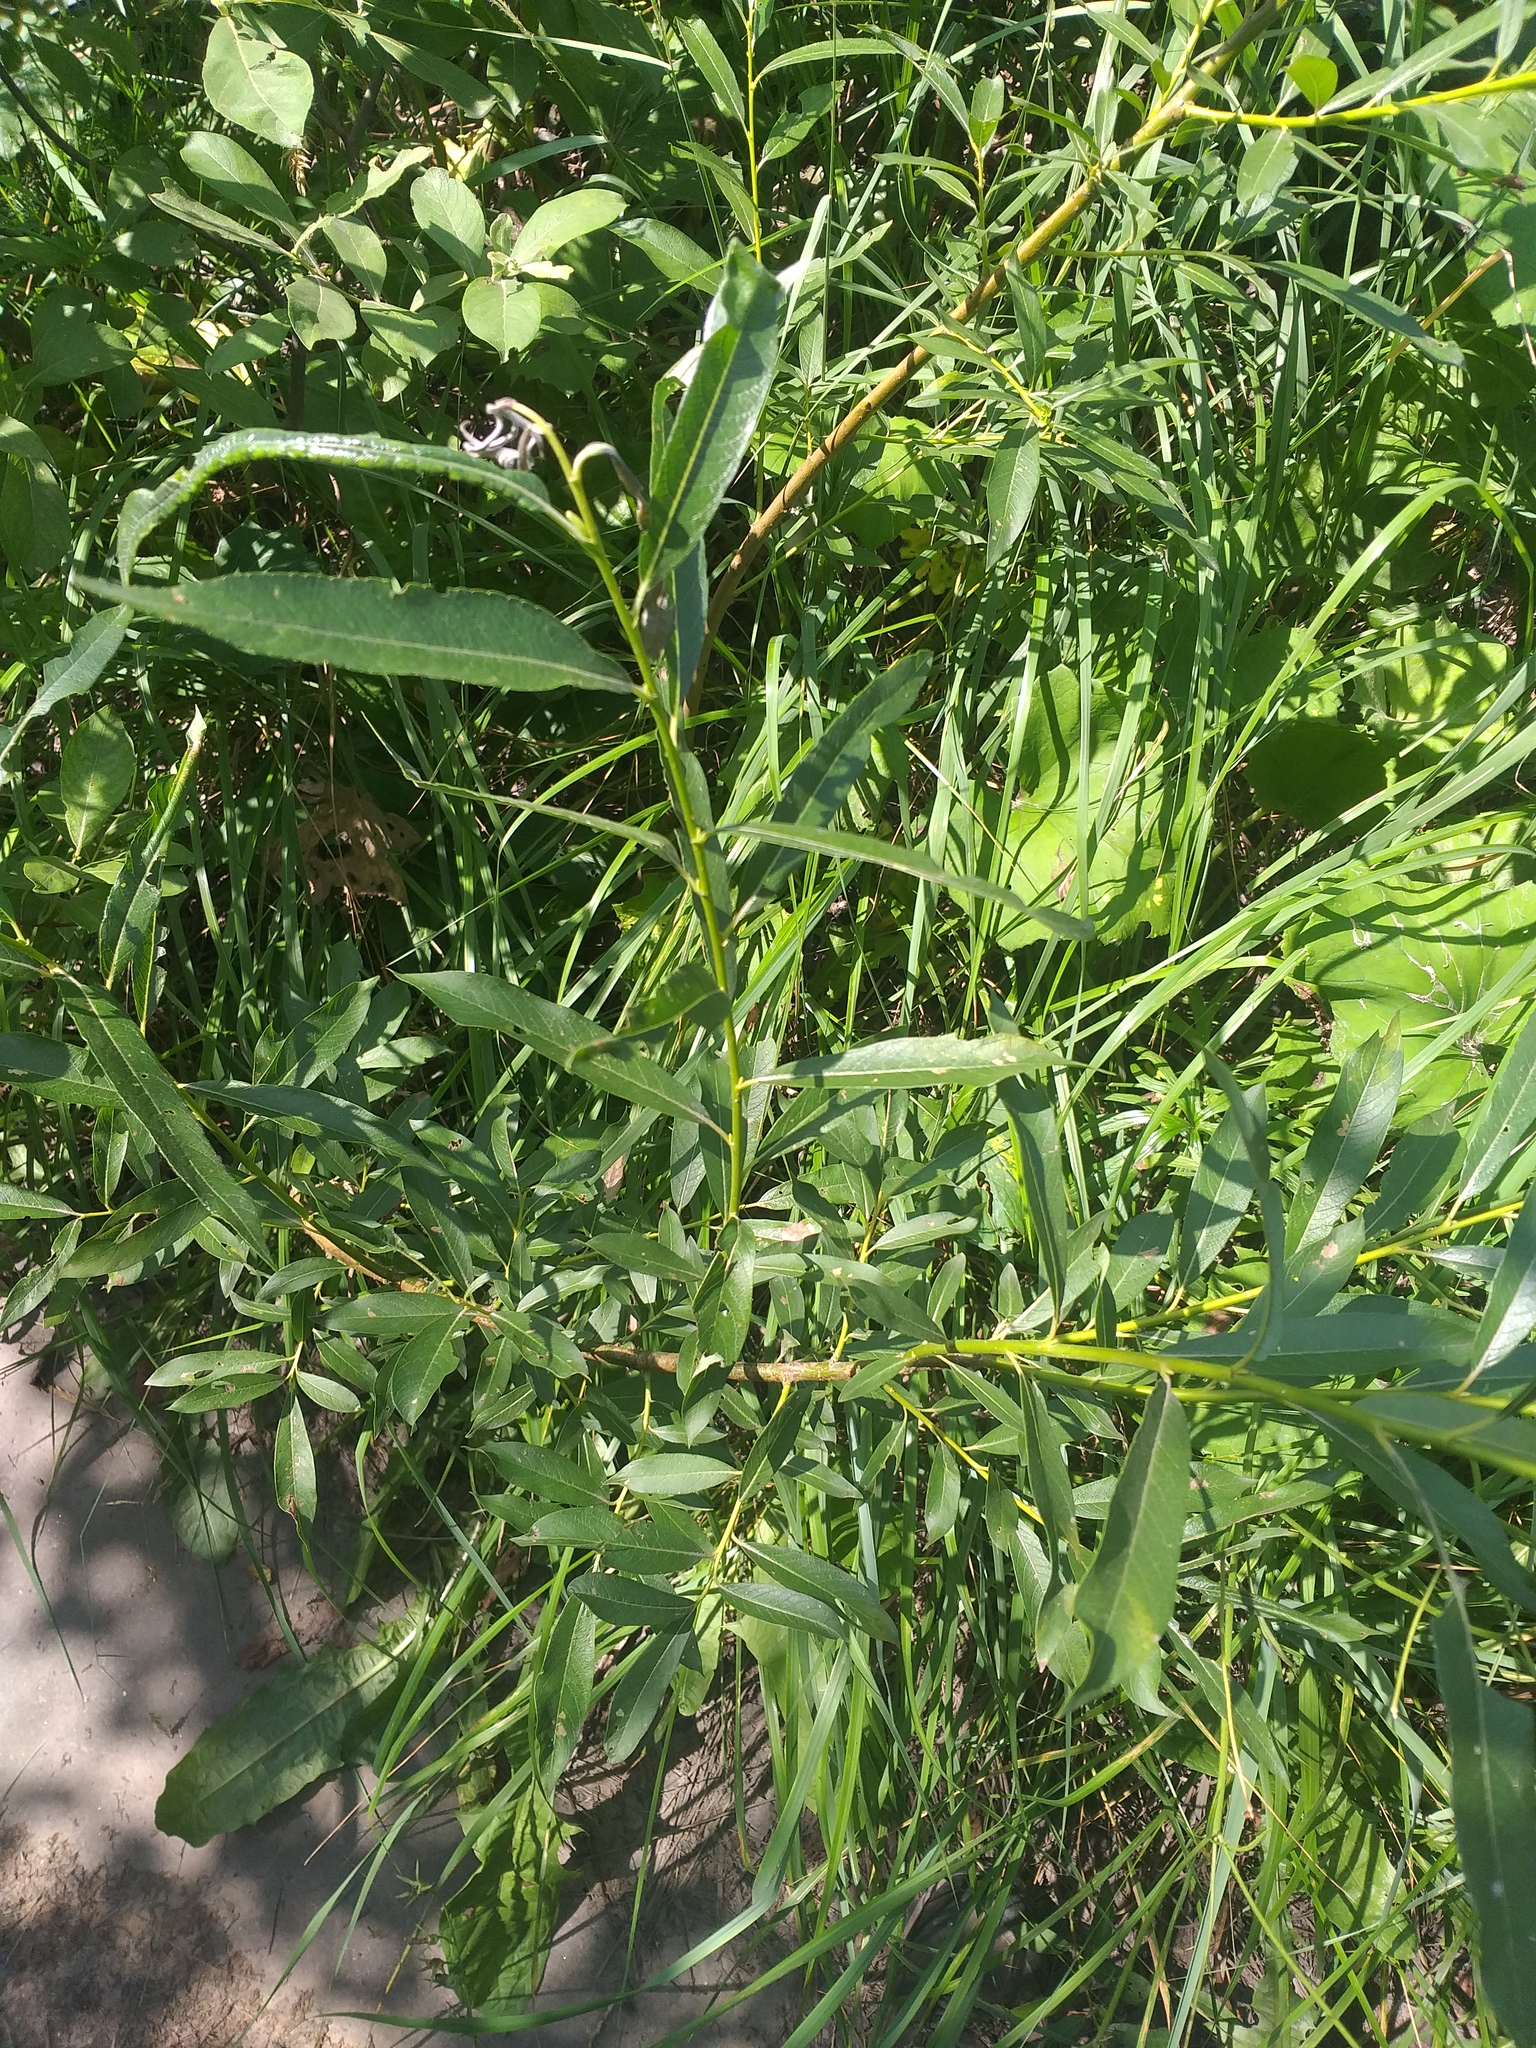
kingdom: Plantae
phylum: Tracheophyta
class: Magnoliopsida
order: Malpighiales
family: Salicaceae
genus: Salix
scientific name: Salix viminalis
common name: Osier
